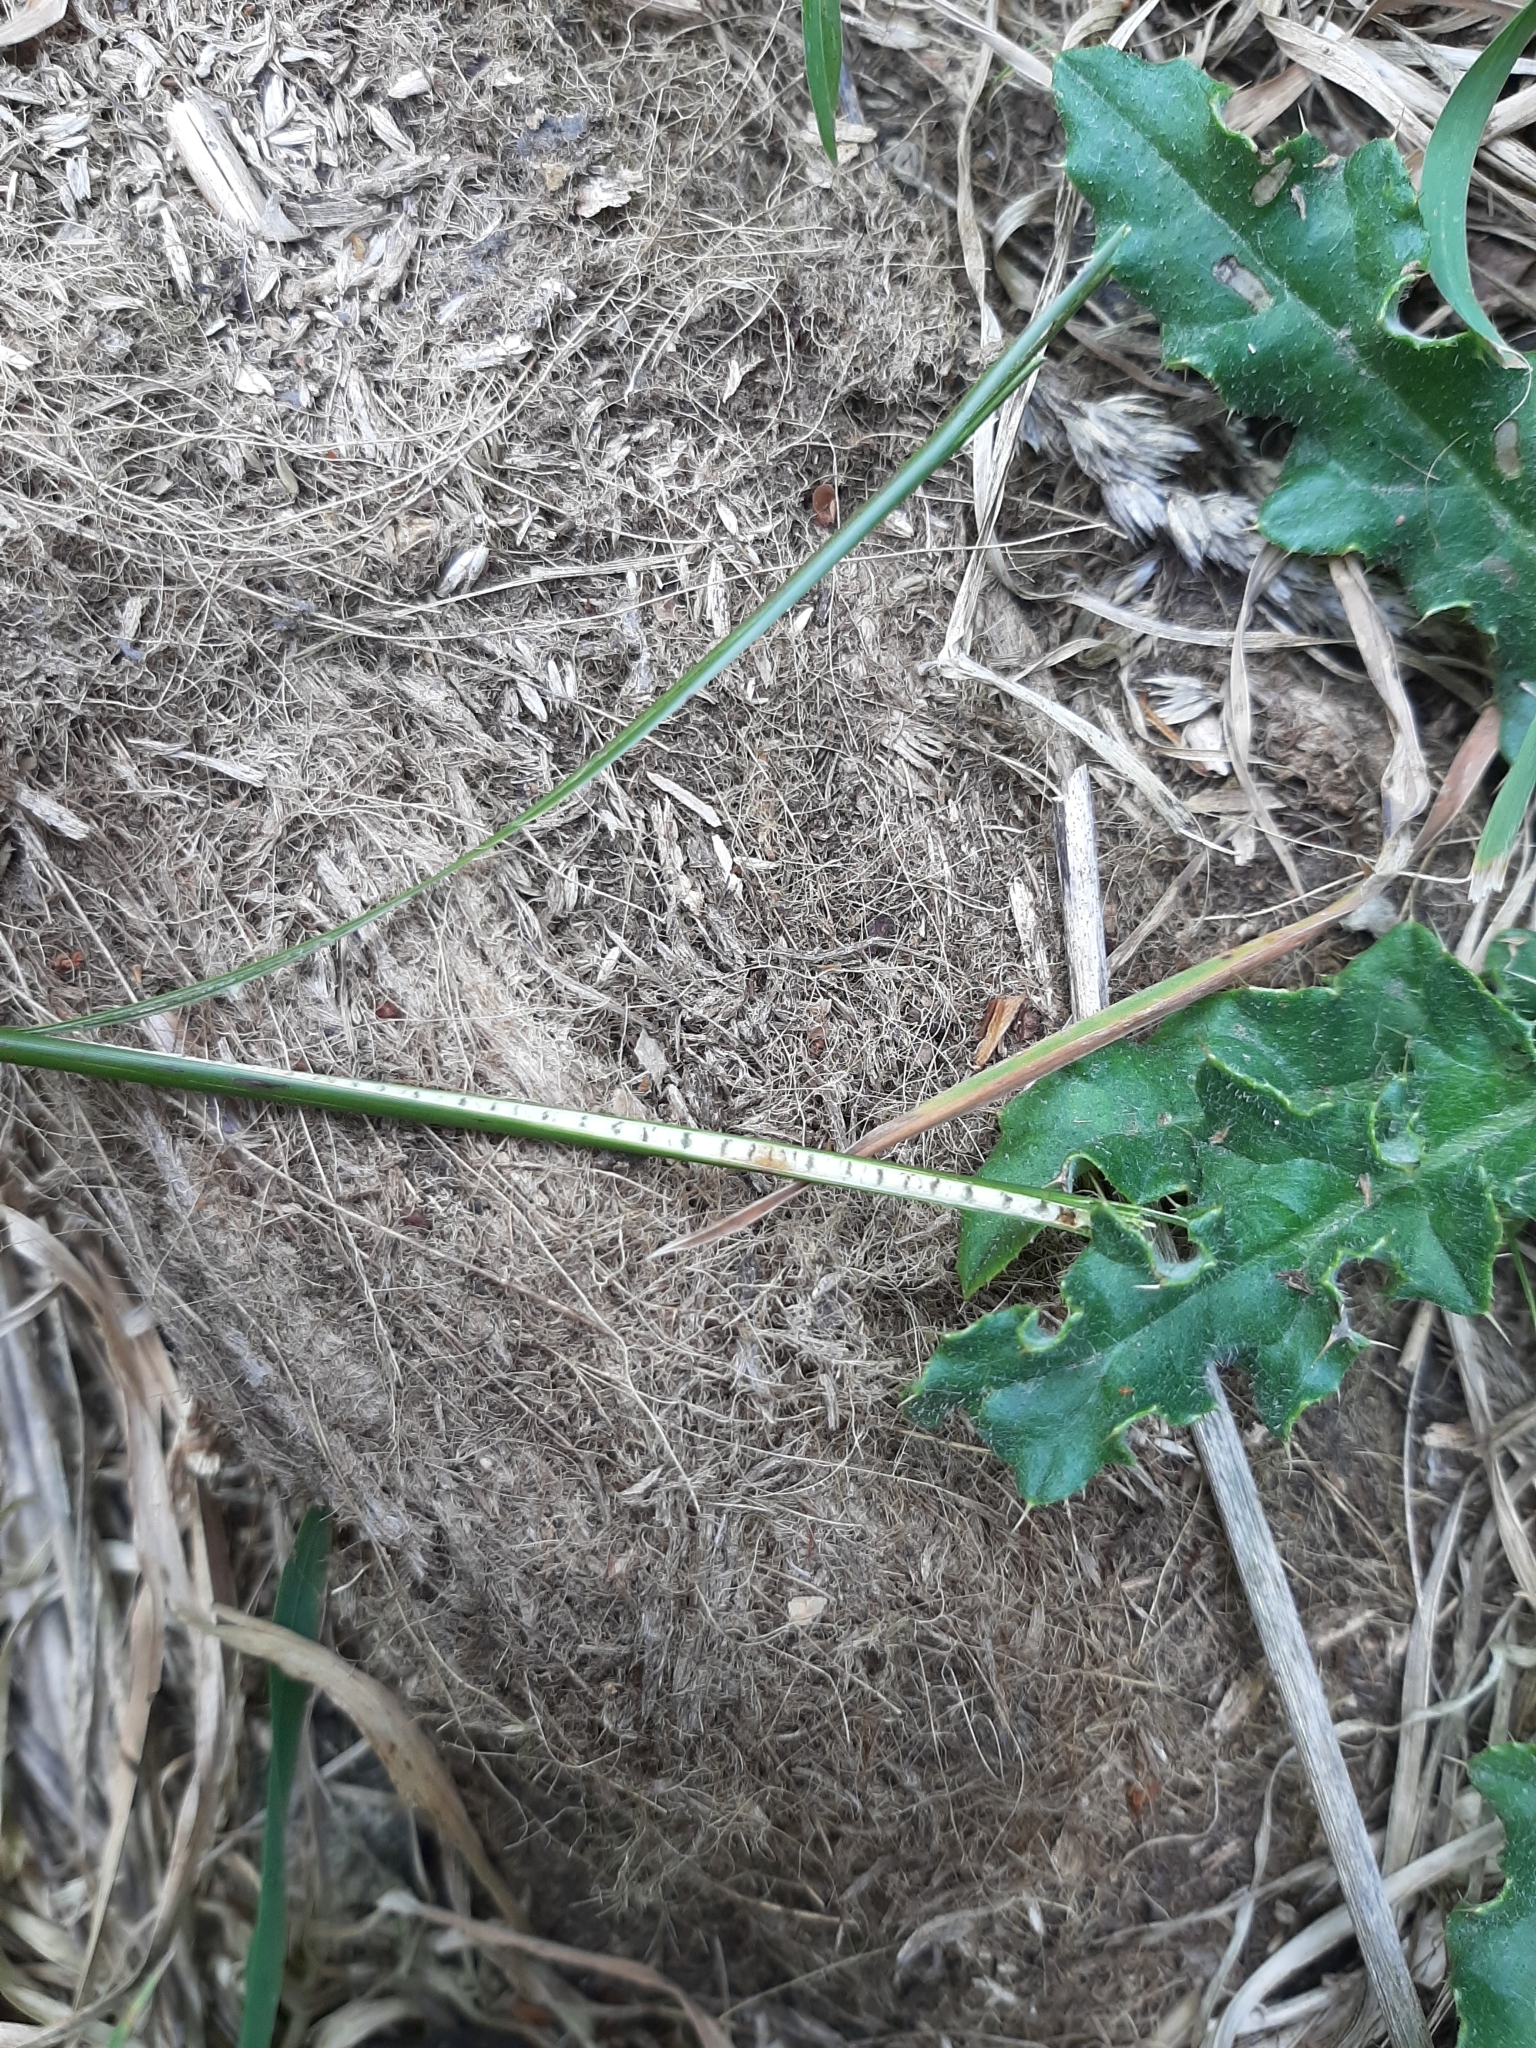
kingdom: Plantae
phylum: Tracheophyta
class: Liliopsida
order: Poales
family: Juncaceae
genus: Juncus
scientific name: Juncus edgariae
